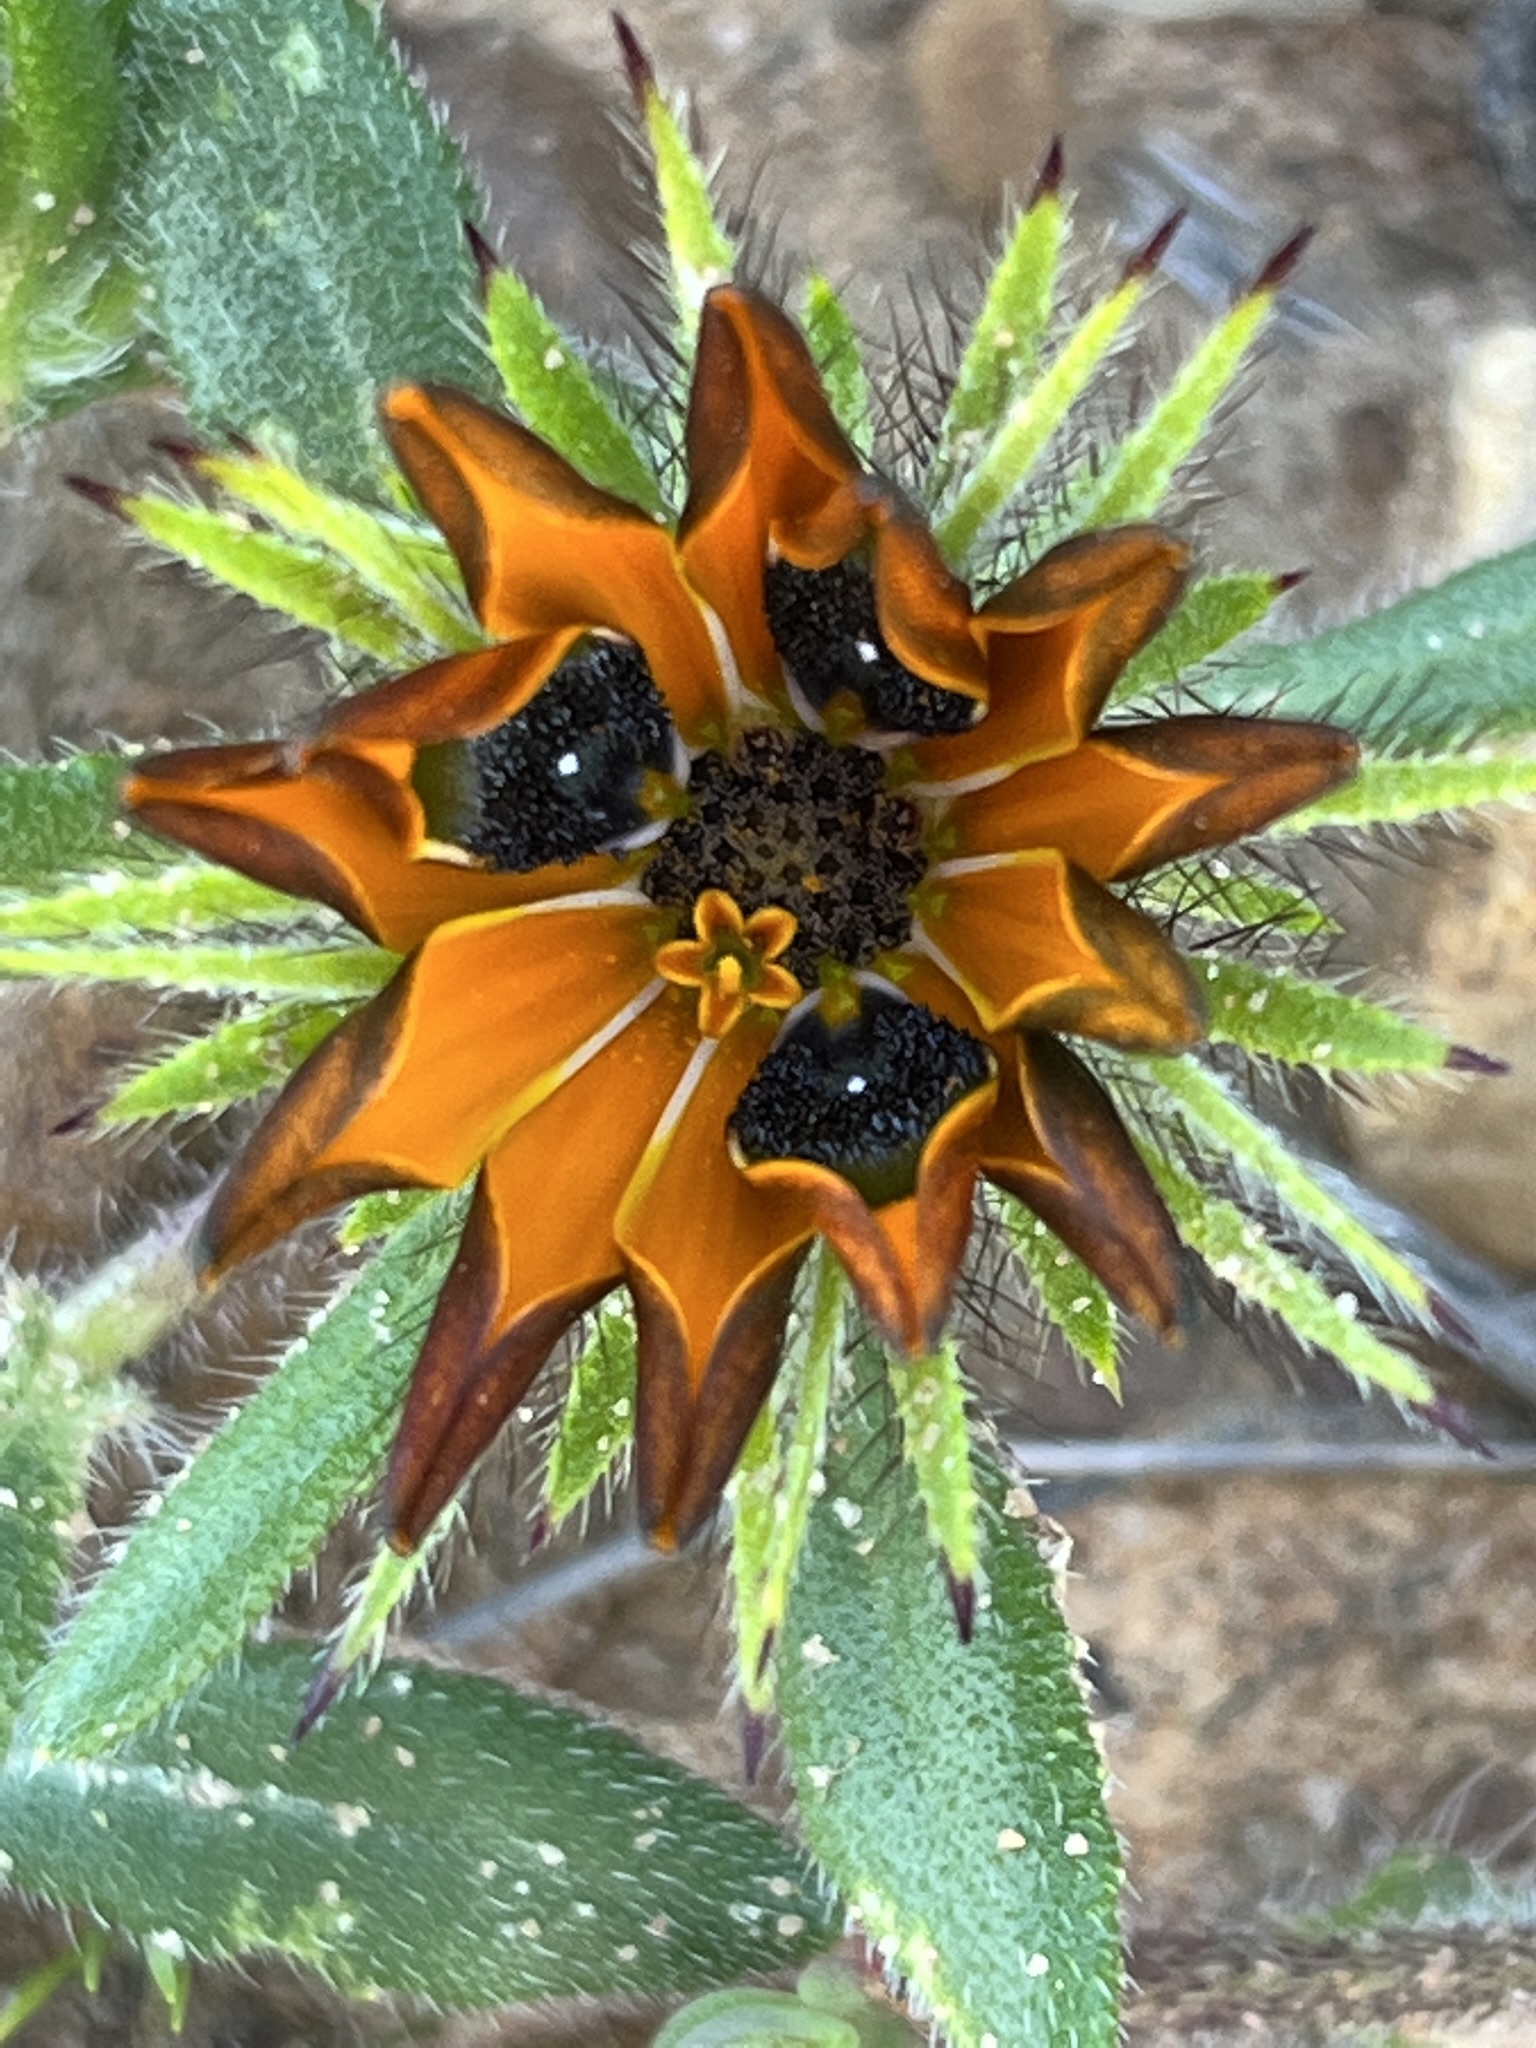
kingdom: Plantae
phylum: Tracheophyta
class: Magnoliopsida
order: Asterales
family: Asteraceae
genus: Gorteria
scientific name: Gorteria diffusa
